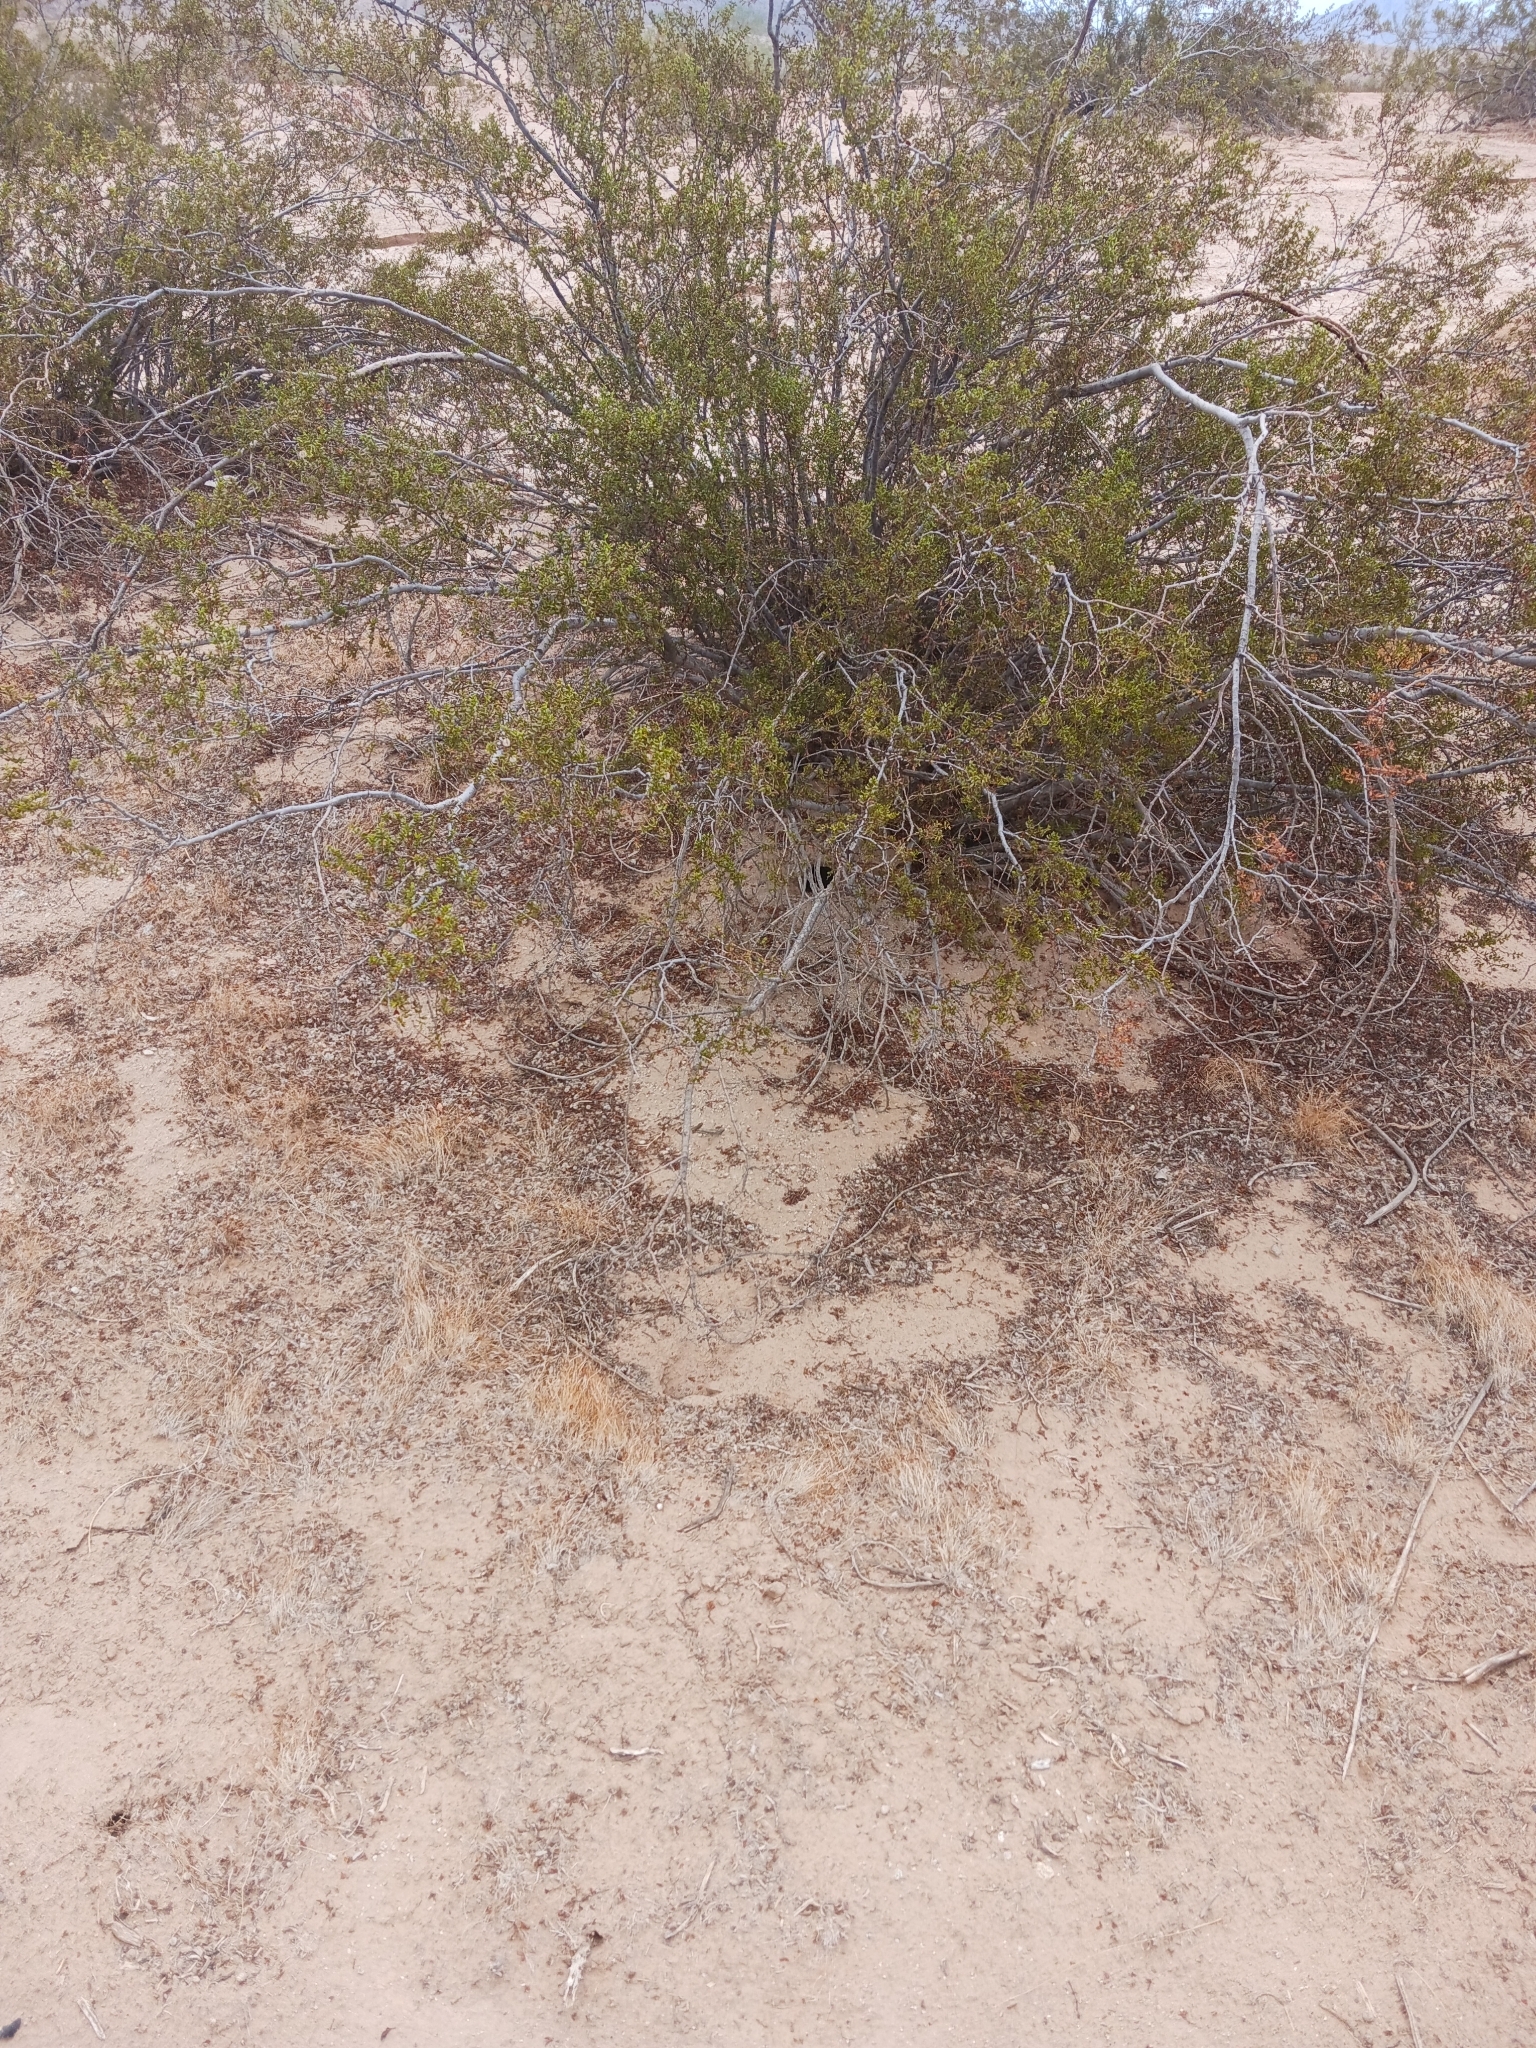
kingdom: Plantae
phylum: Tracheophyta
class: Magnoliopsida
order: Zygophyllales
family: Zygophyllaceae
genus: Larrea
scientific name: Larrea tridentata
